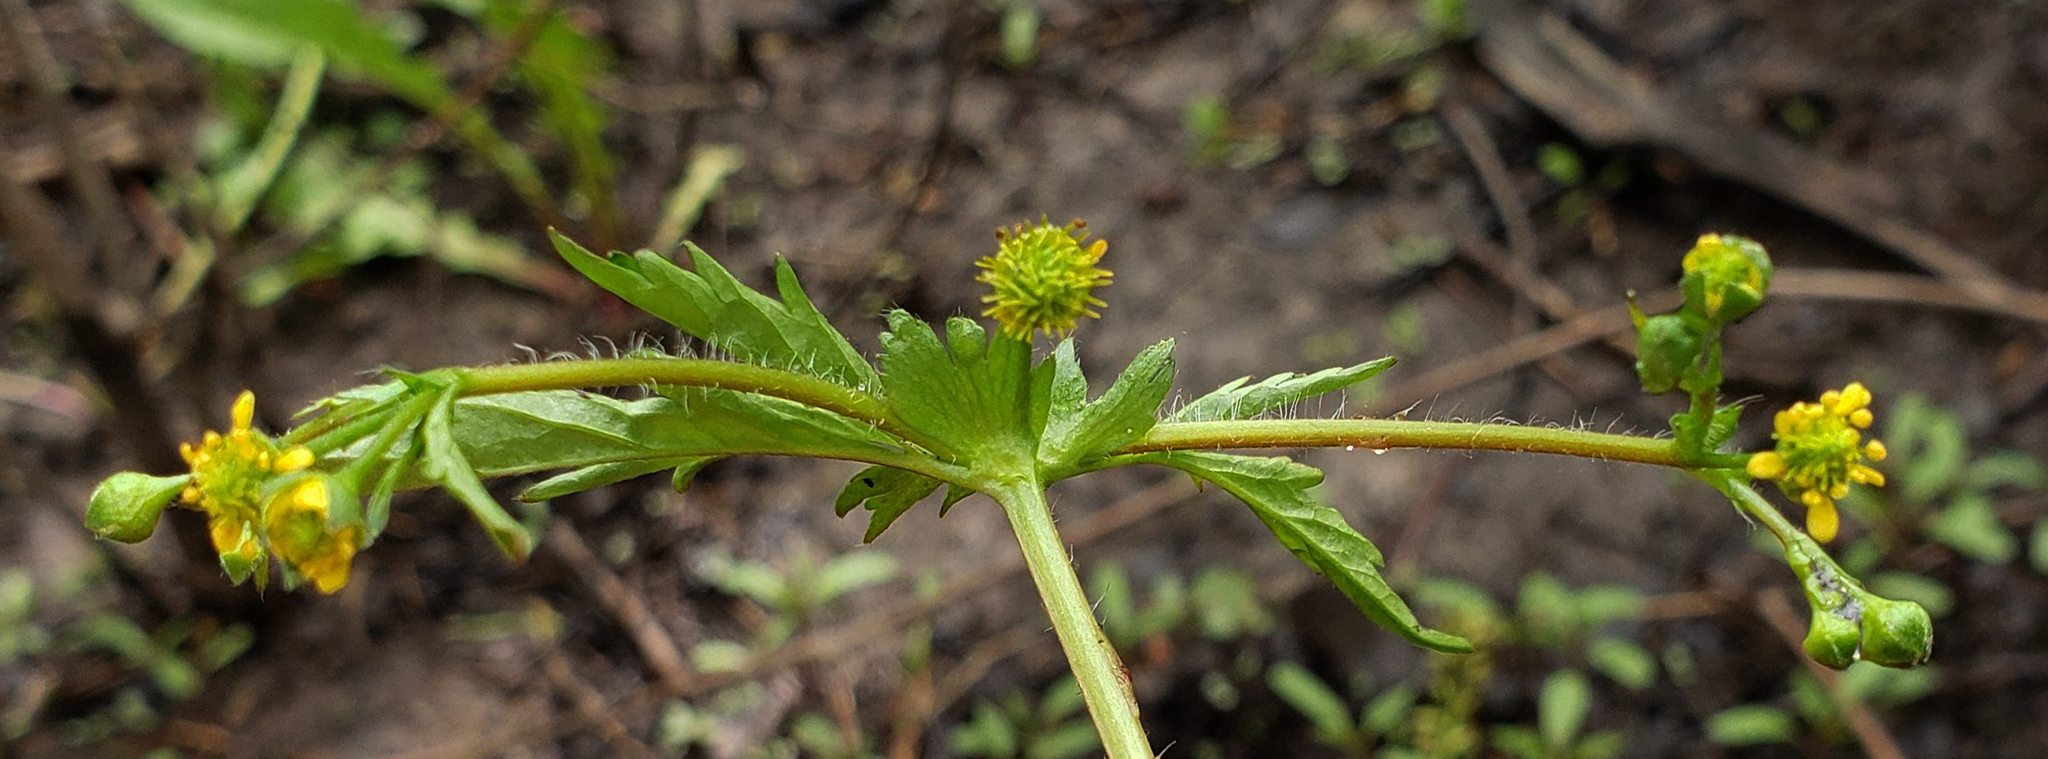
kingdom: Plantae
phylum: Tracheophyta
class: Magnoliopsida
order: Rosales
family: Rosaceae
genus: Geum
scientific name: Geum vernum
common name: Spring avens
